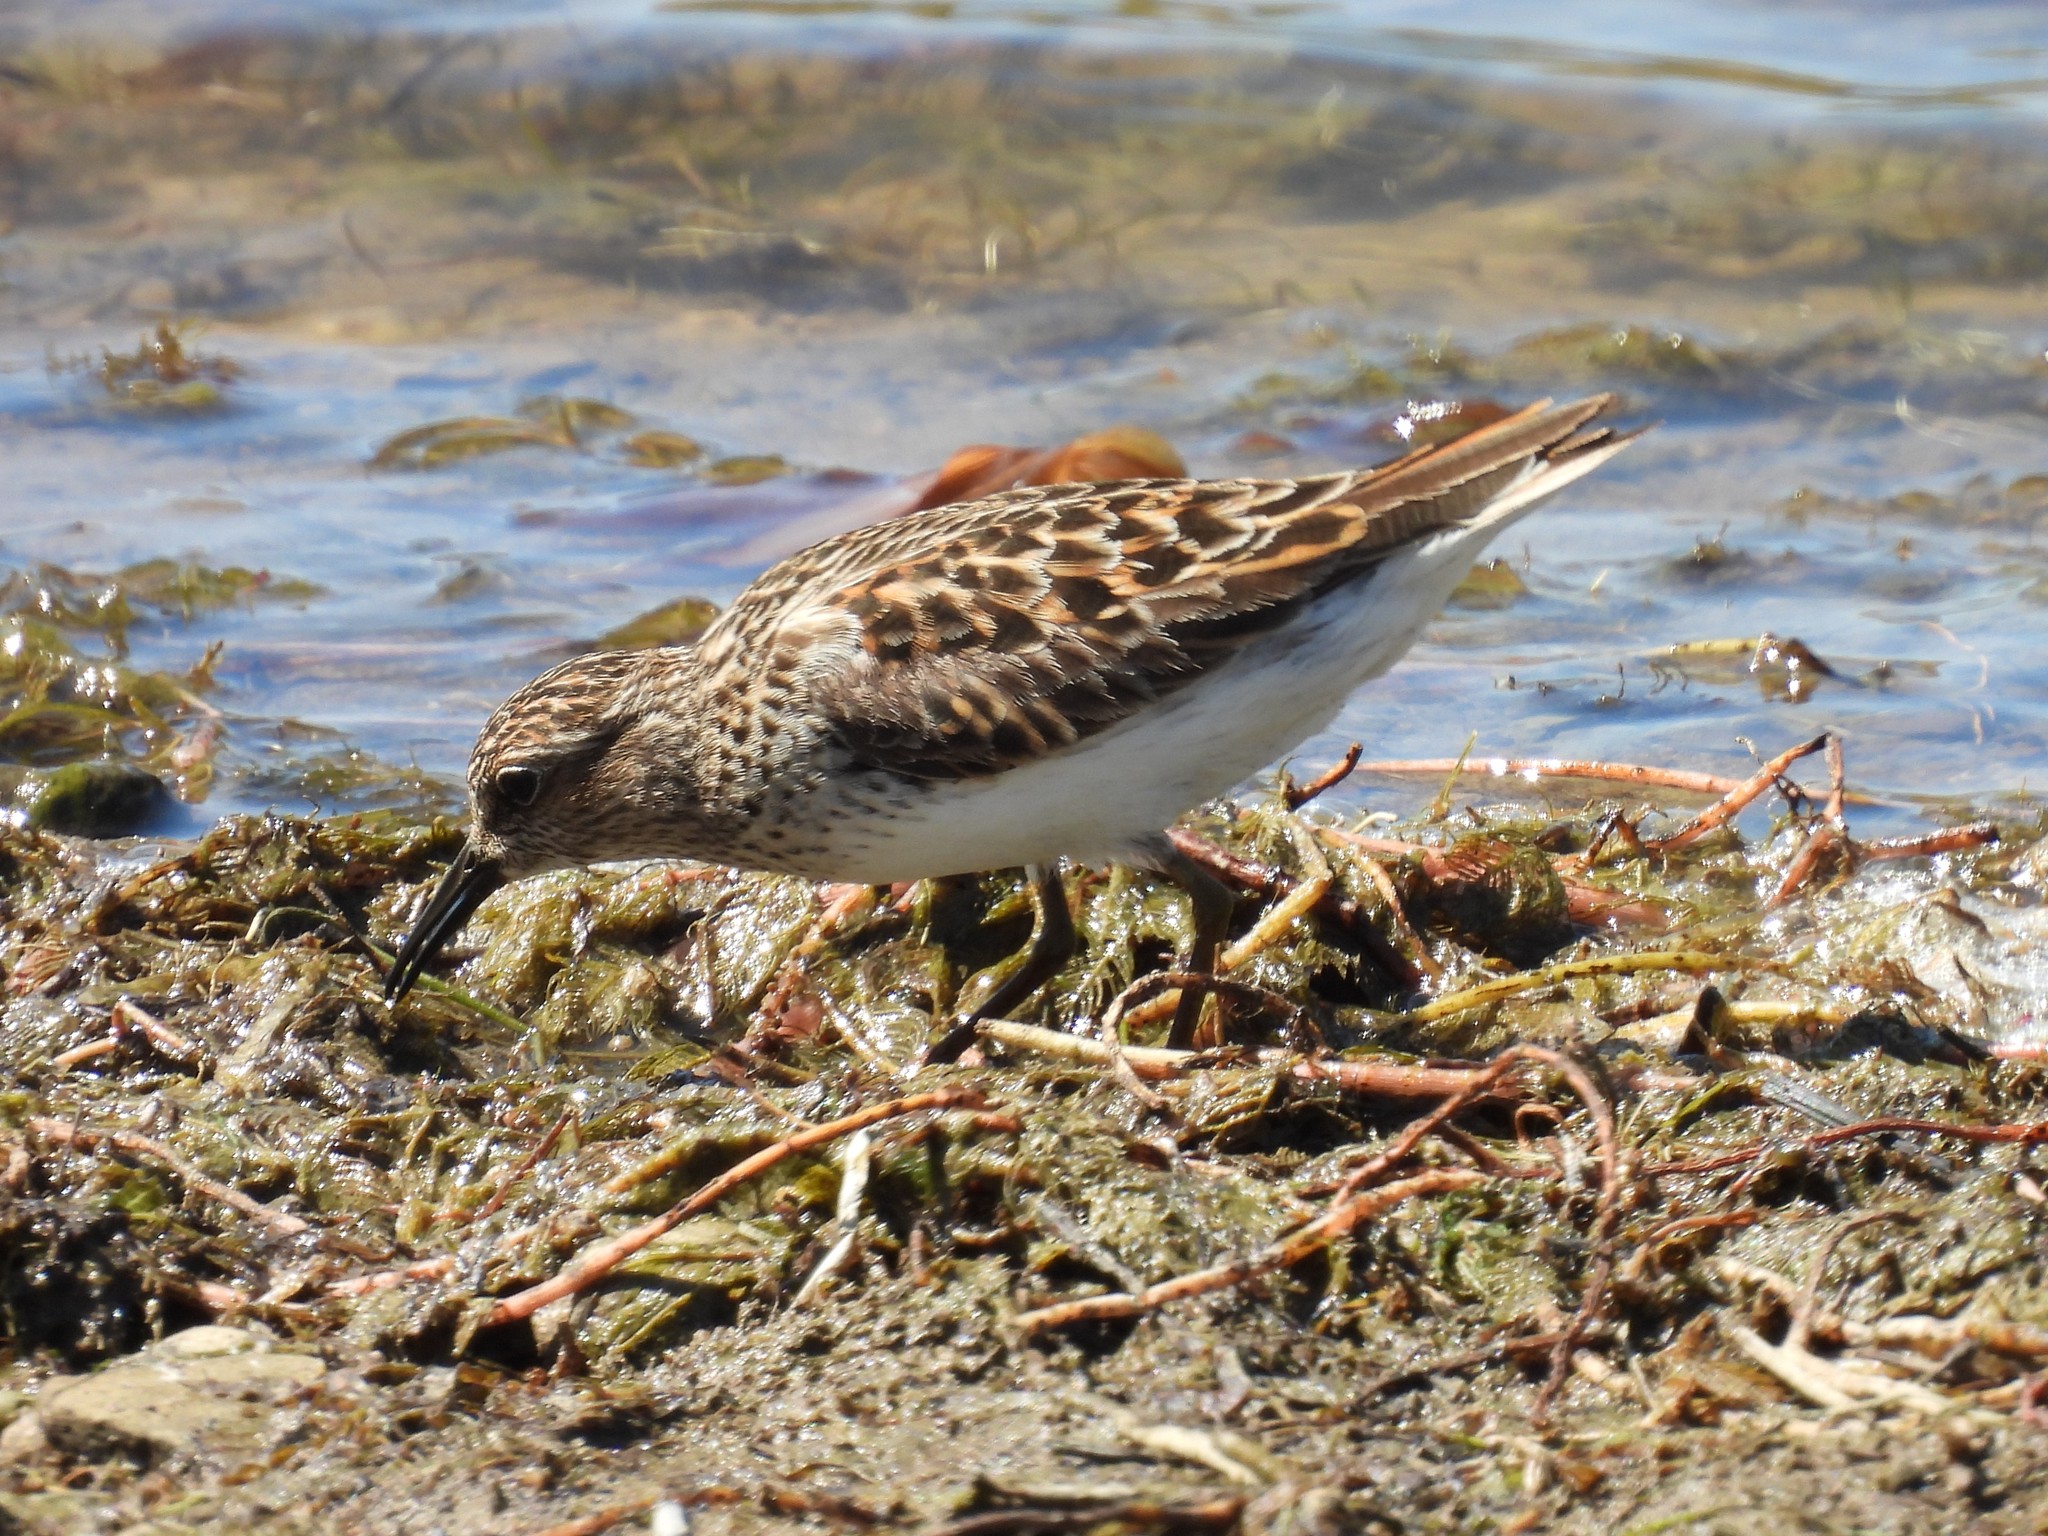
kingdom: Animalia
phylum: Chordata
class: Aves
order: Charadriiformes
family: Scolopacidae
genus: Calidris
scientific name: Calidris mauri
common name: Western sandpiper
